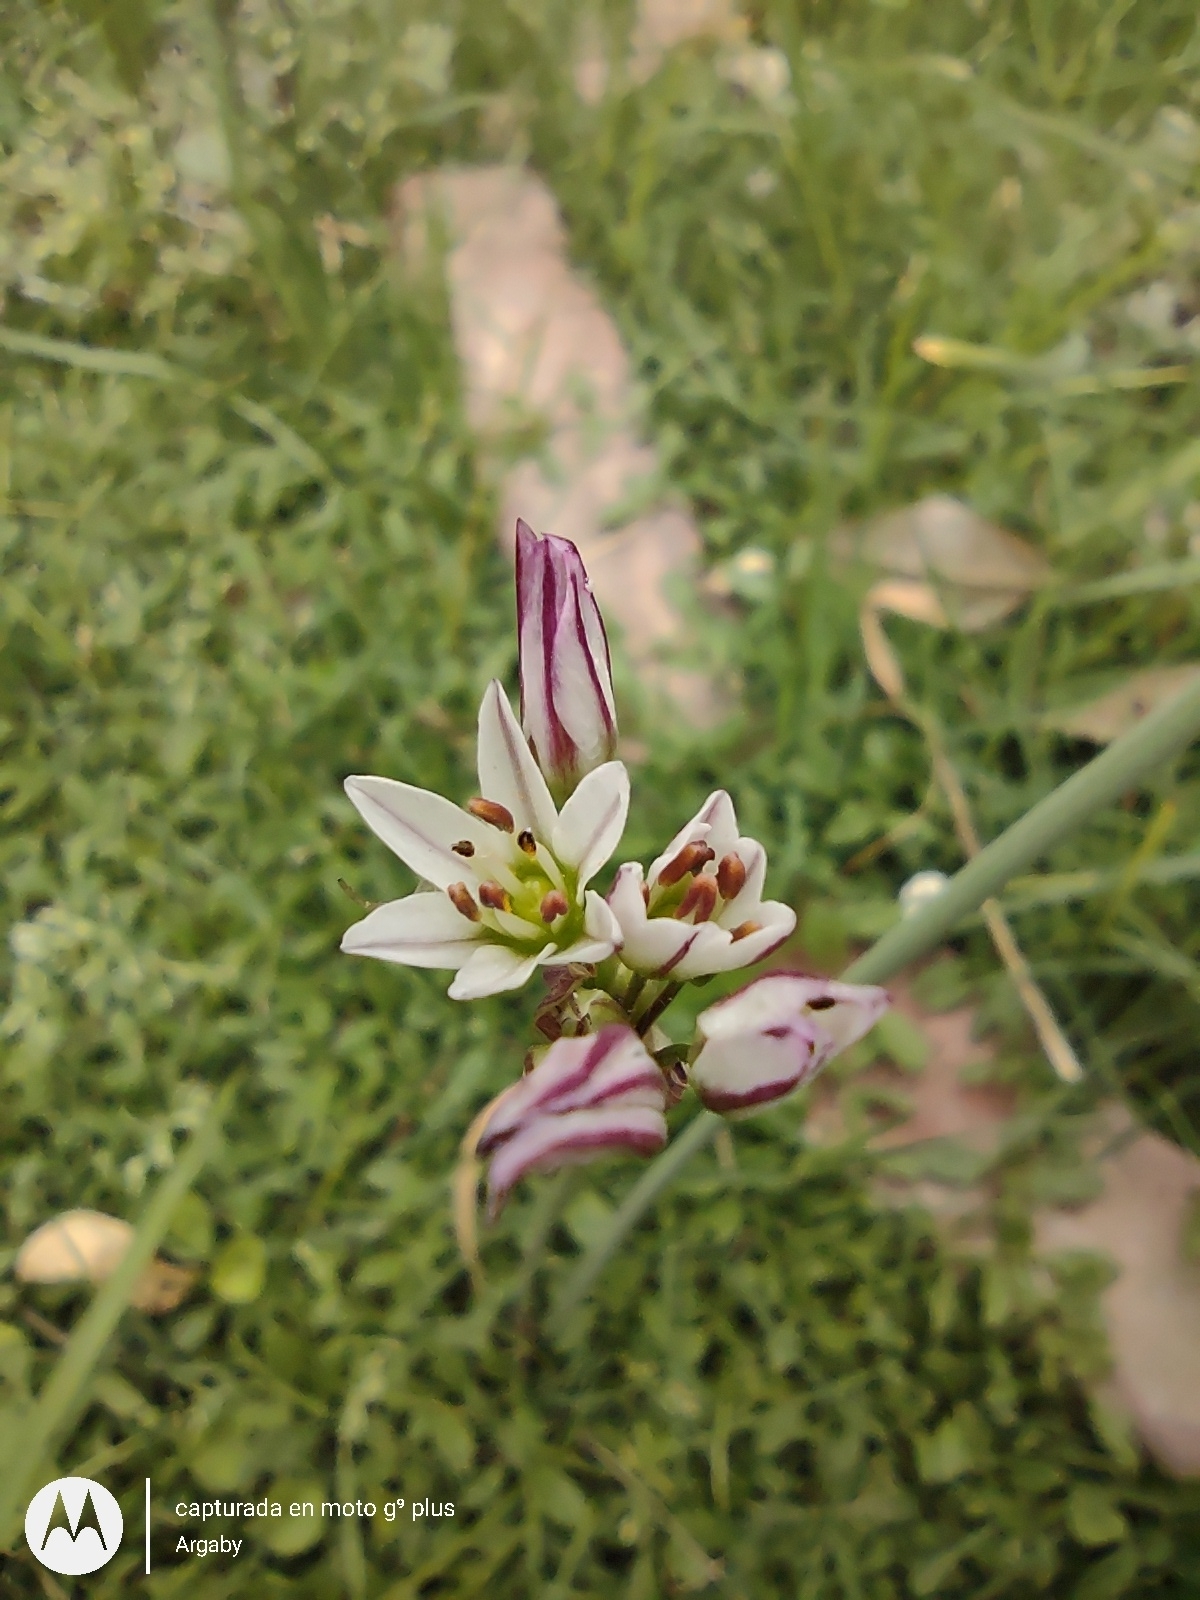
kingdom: Plantae
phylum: Tracheophyta
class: Liliopsida
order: Asparagales
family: Amaryllidaceae
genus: Nothoscordum
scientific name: Nothoscordum gracile
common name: Slender false garlic
